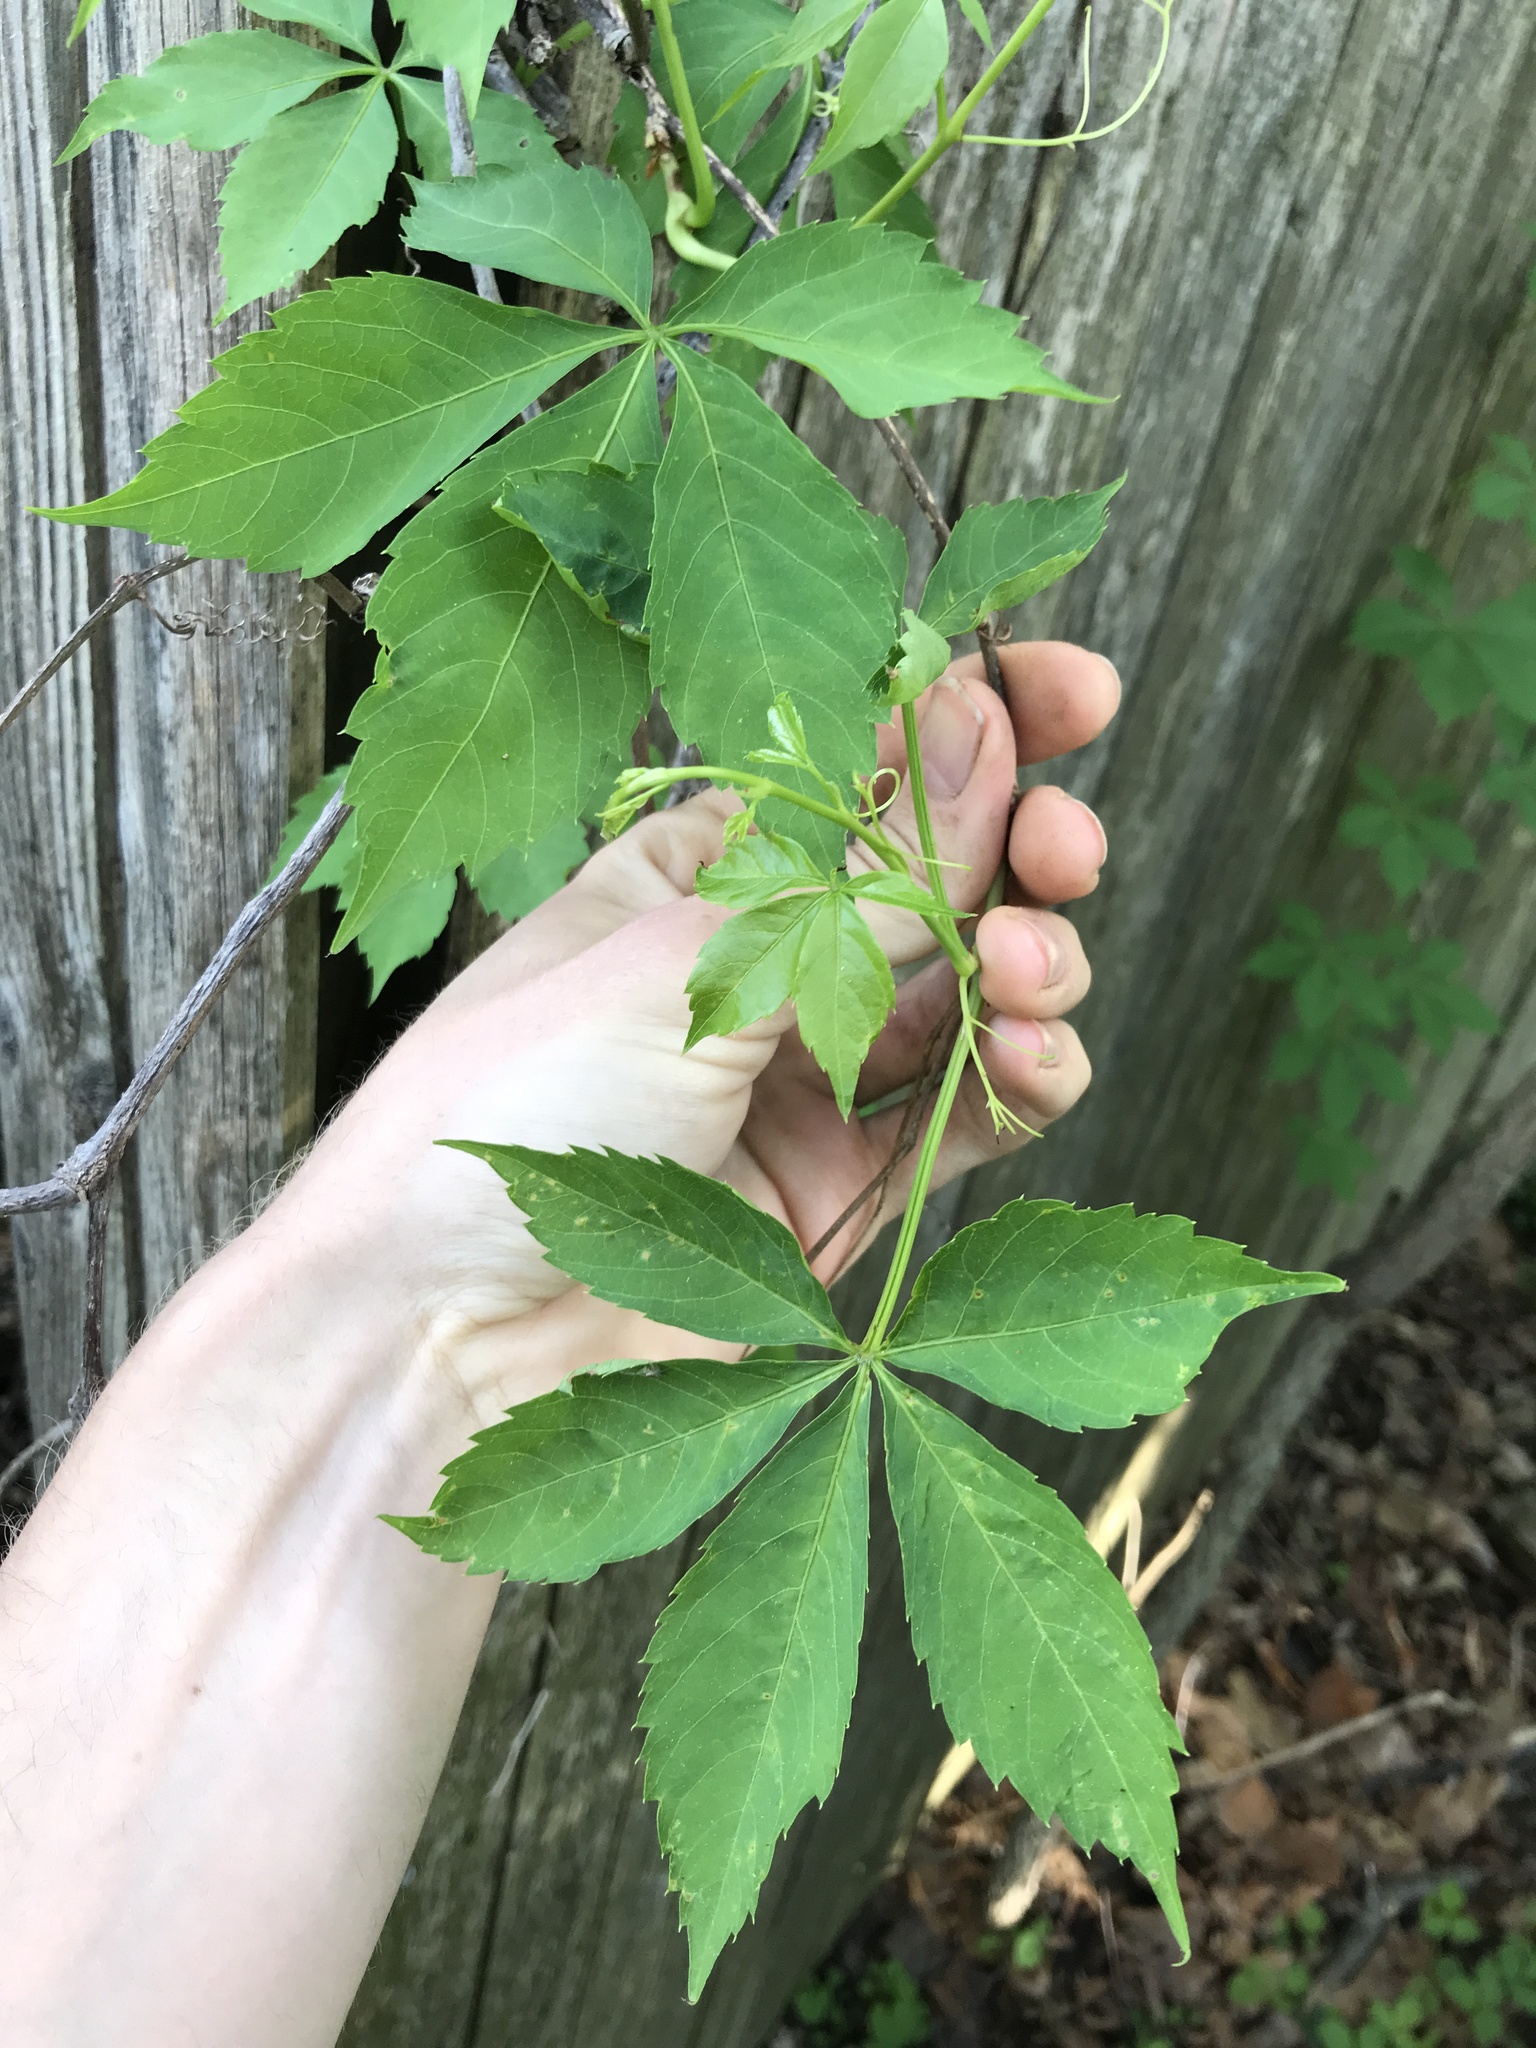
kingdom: Plantae
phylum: Tracheophyta
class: Magnoliopsida
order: Vitales
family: Vitaceae
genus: Parthenocissus
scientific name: Parthenocissus quinquefolia
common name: Virginia-creeper
